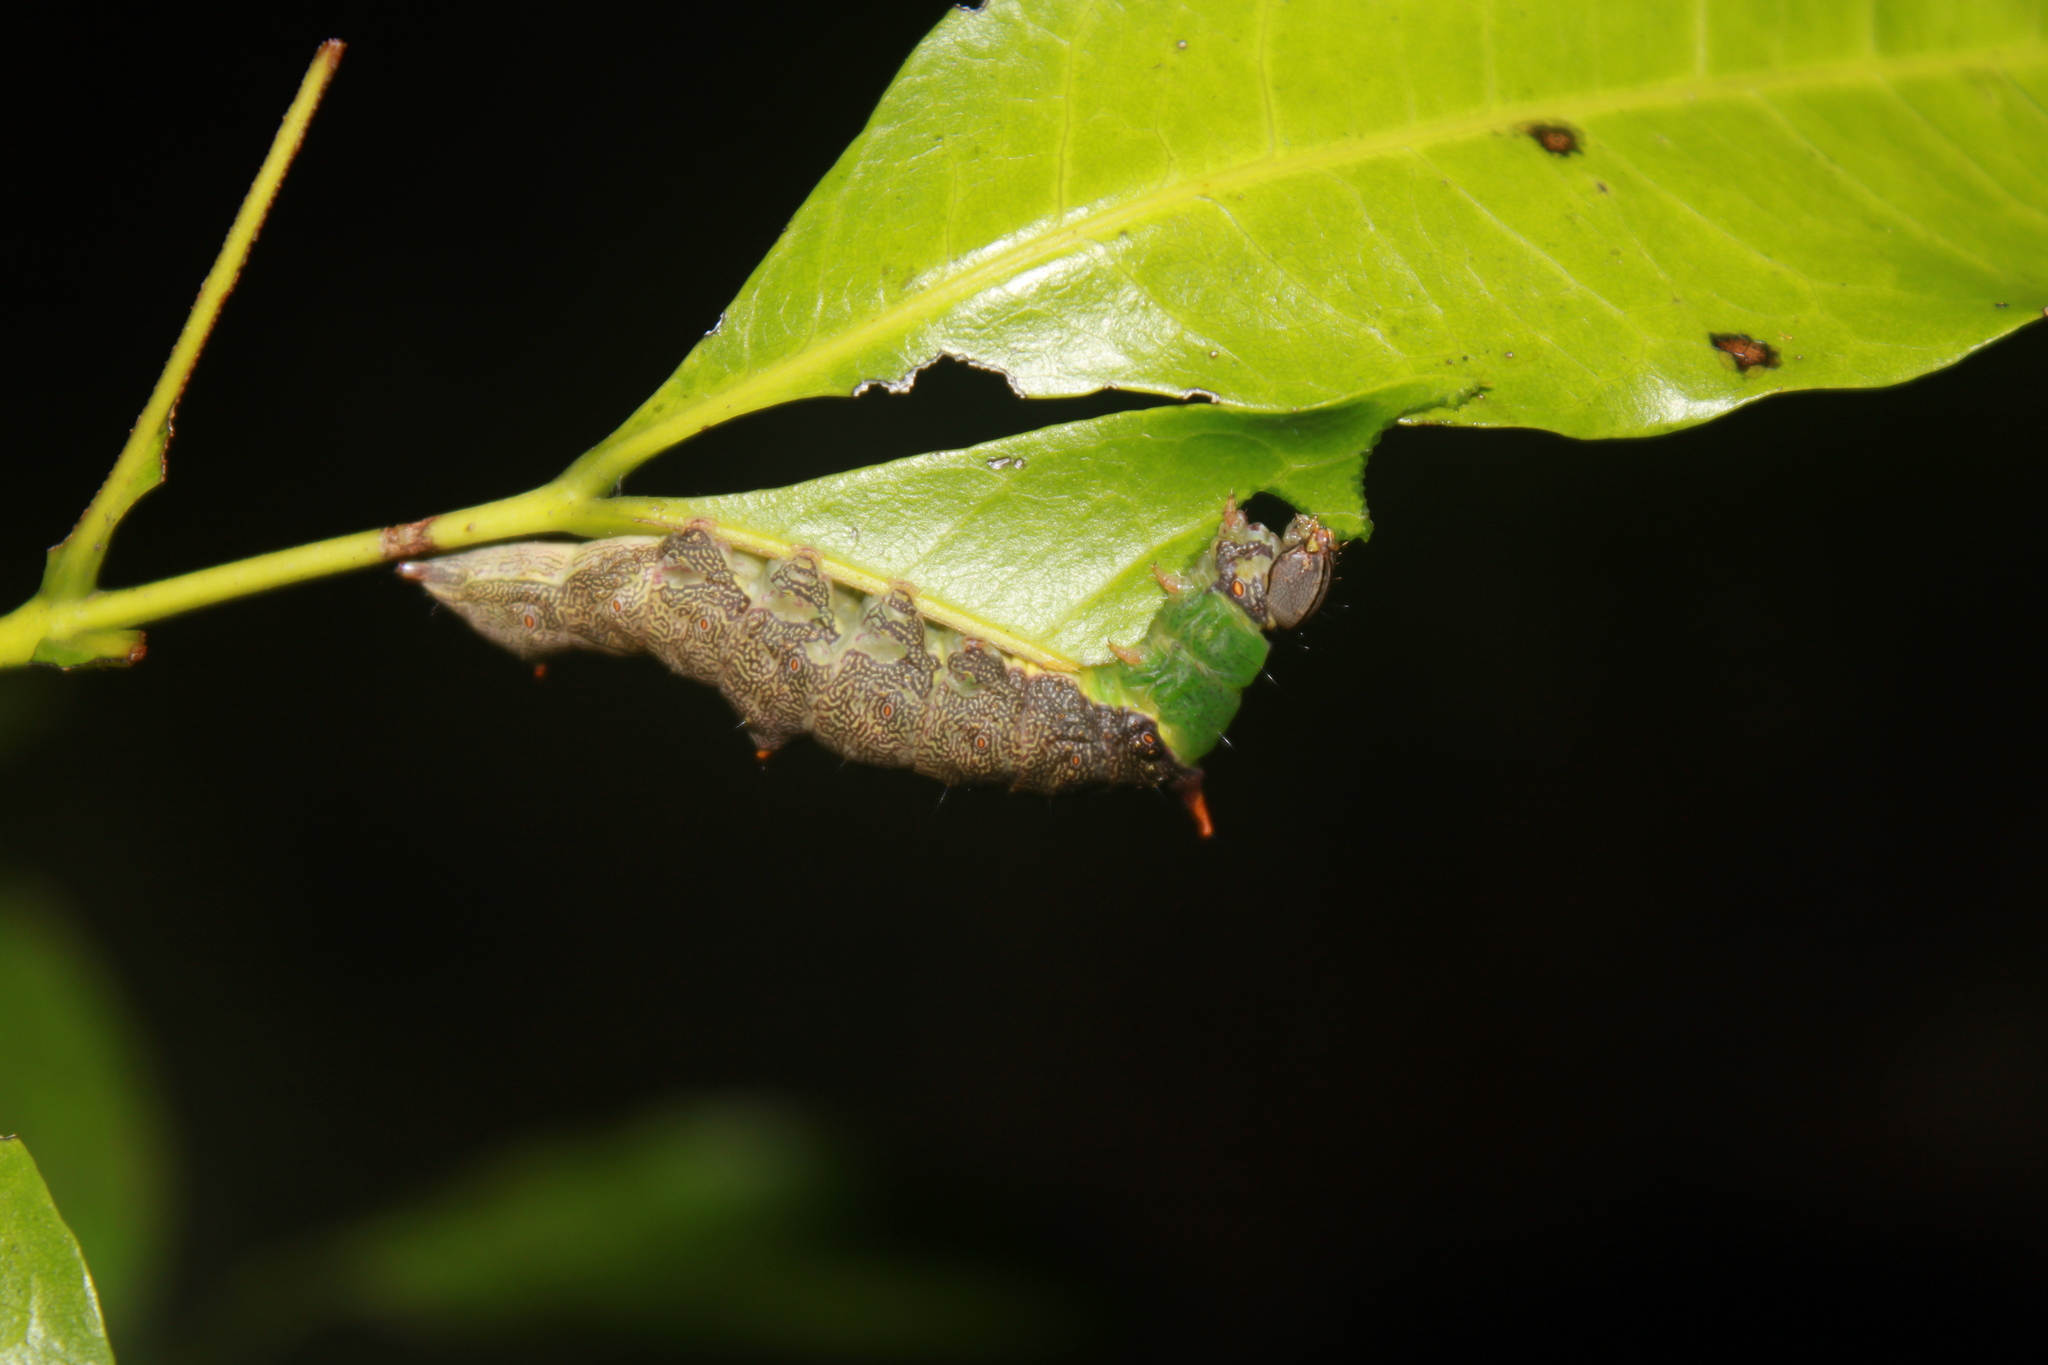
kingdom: Animalia
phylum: Arthropoda
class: Insecta
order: Lepidoptera
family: Notodontidae
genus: Schizura
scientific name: Schizura ipomaeae
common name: Morning-glory prominent
